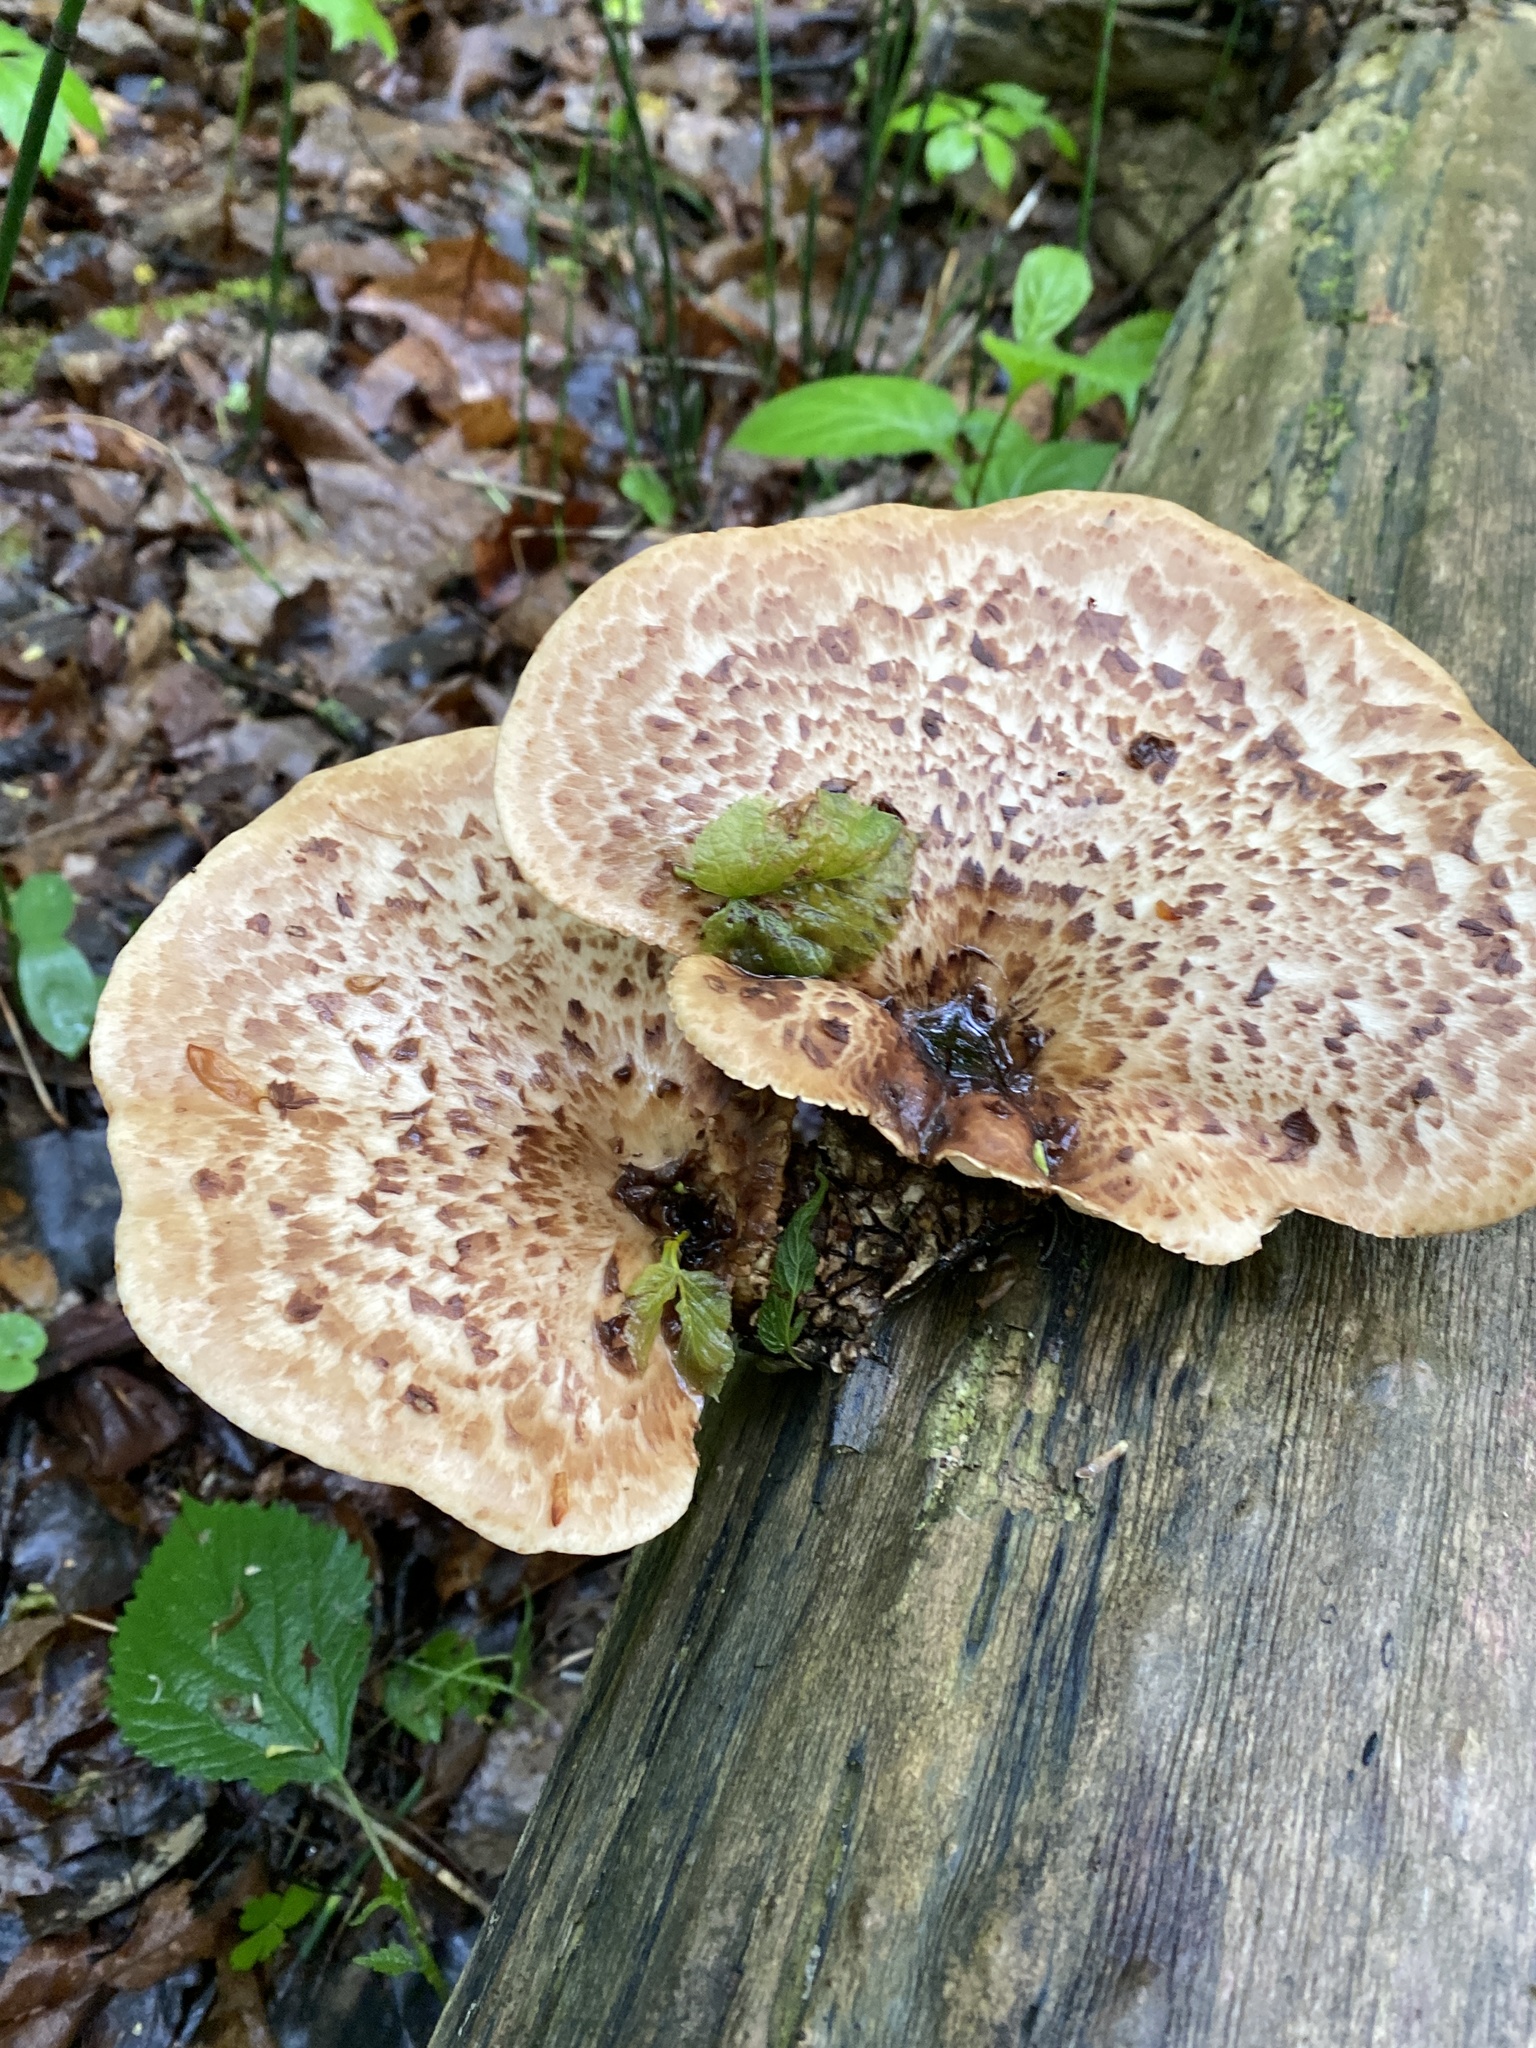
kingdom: Fungi
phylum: Basidiomycota
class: Agaricomycetes
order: Polyporales
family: Polyporaceae
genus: Cerioporus
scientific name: Cerioporus squamosus
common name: Dryad's saddle
